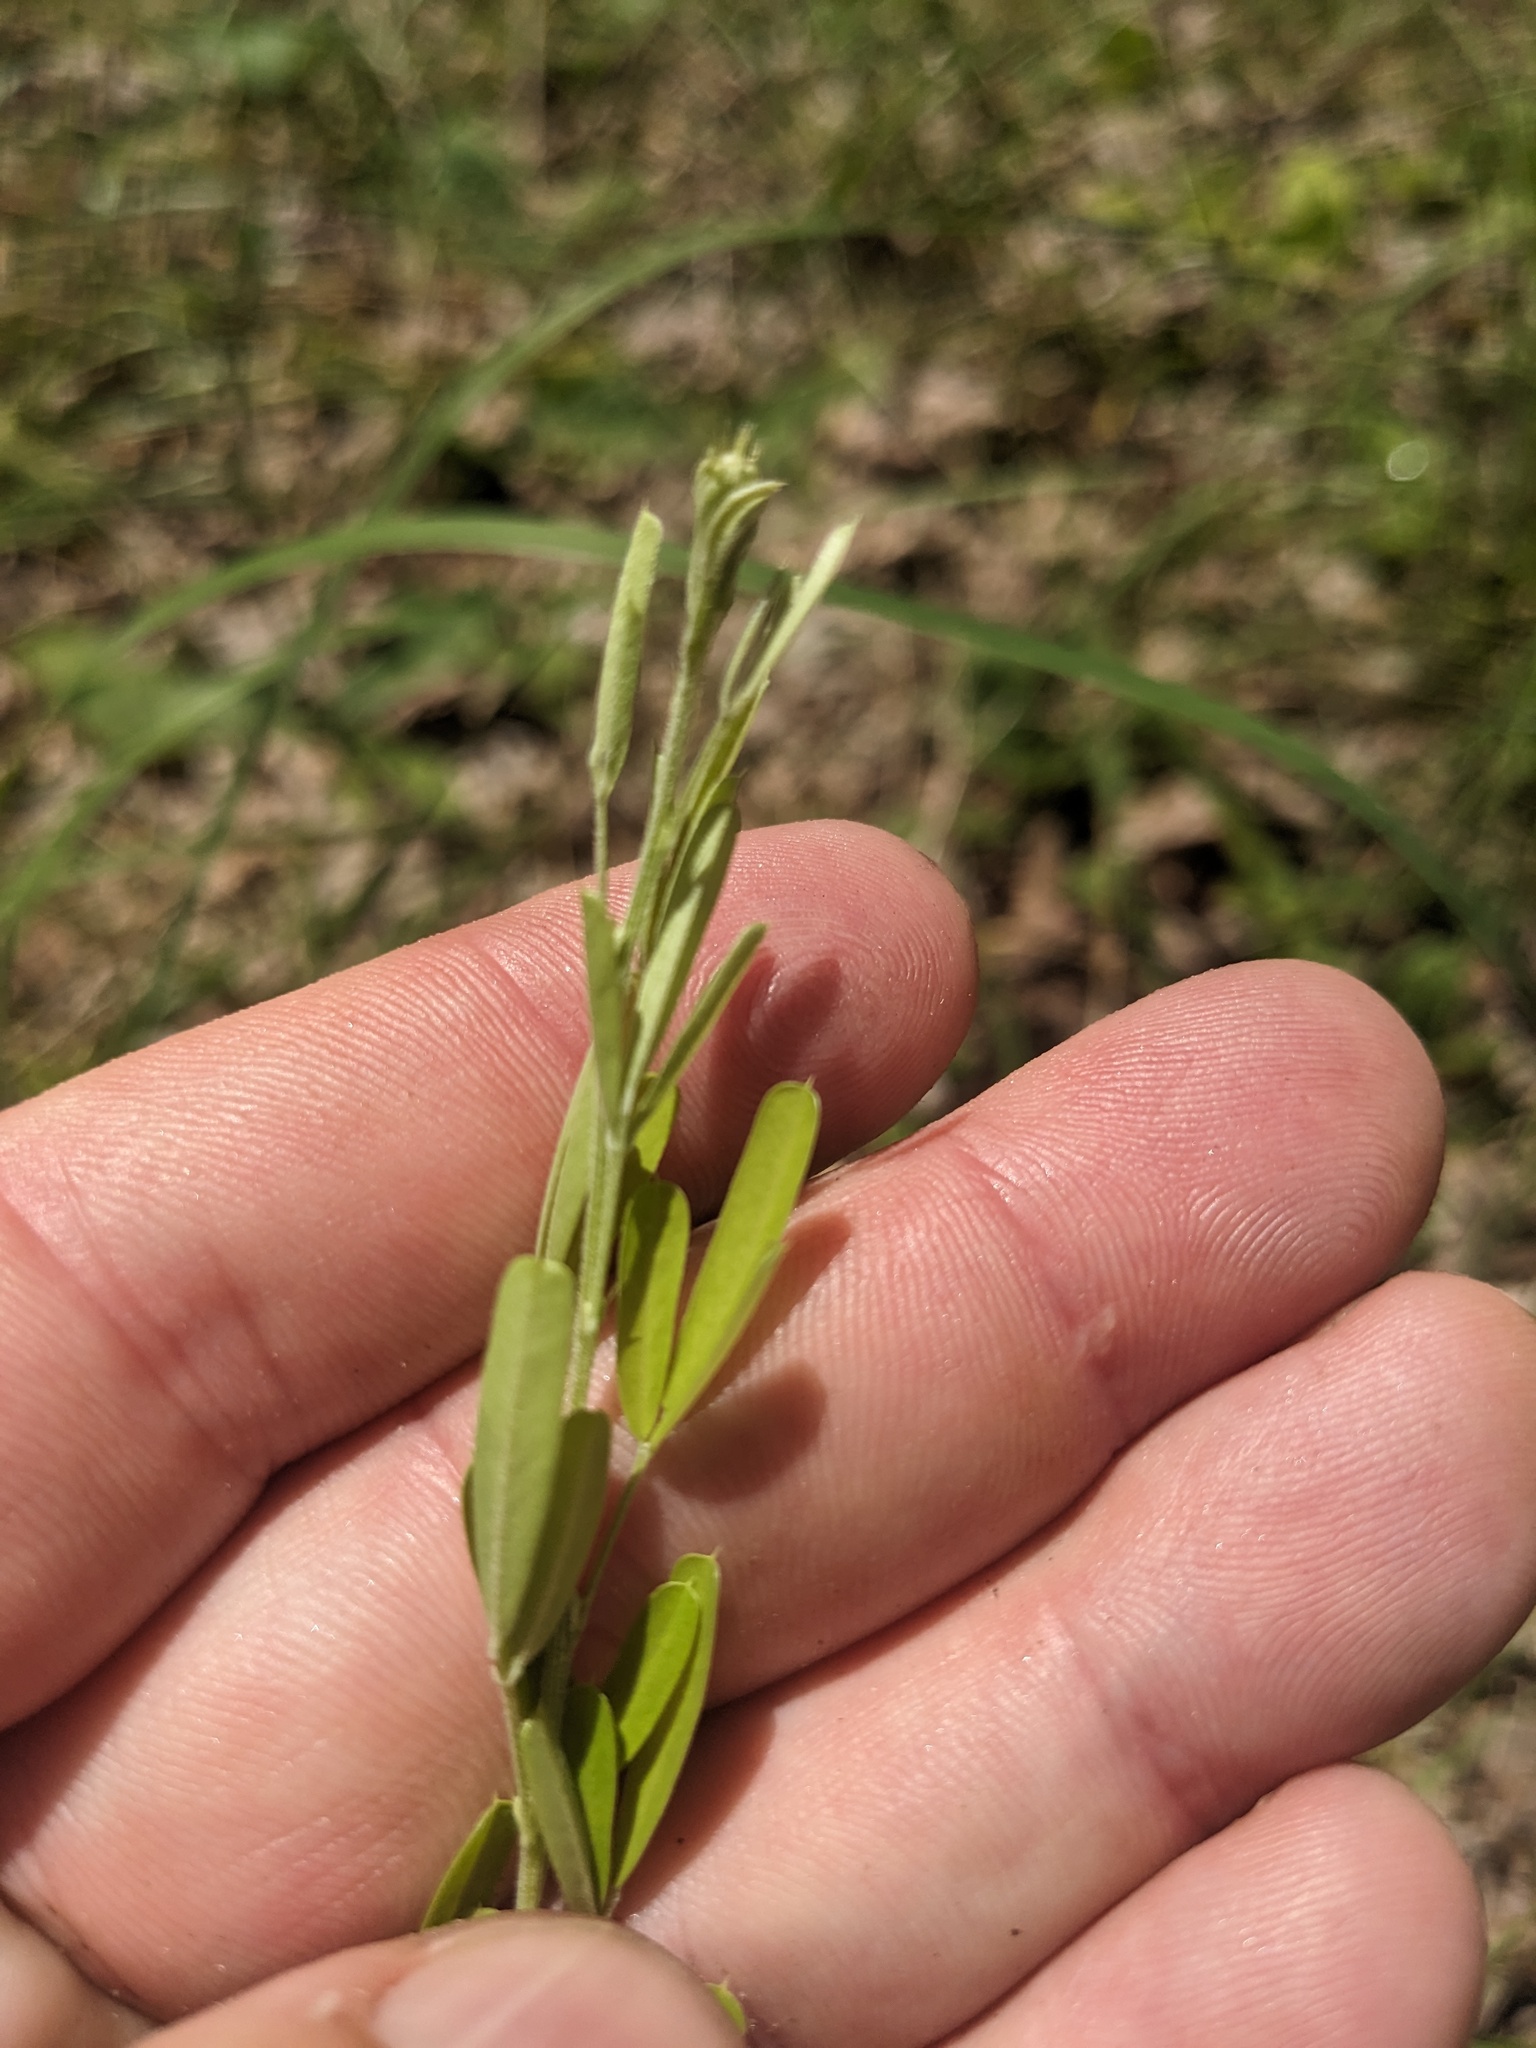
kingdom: Plantae
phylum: Tracheophyta
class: Magnoliopsida
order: Fabales
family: Fabaceae
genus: Lespedeza
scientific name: Lespedeza cuneata
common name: Chinese bush-clover
